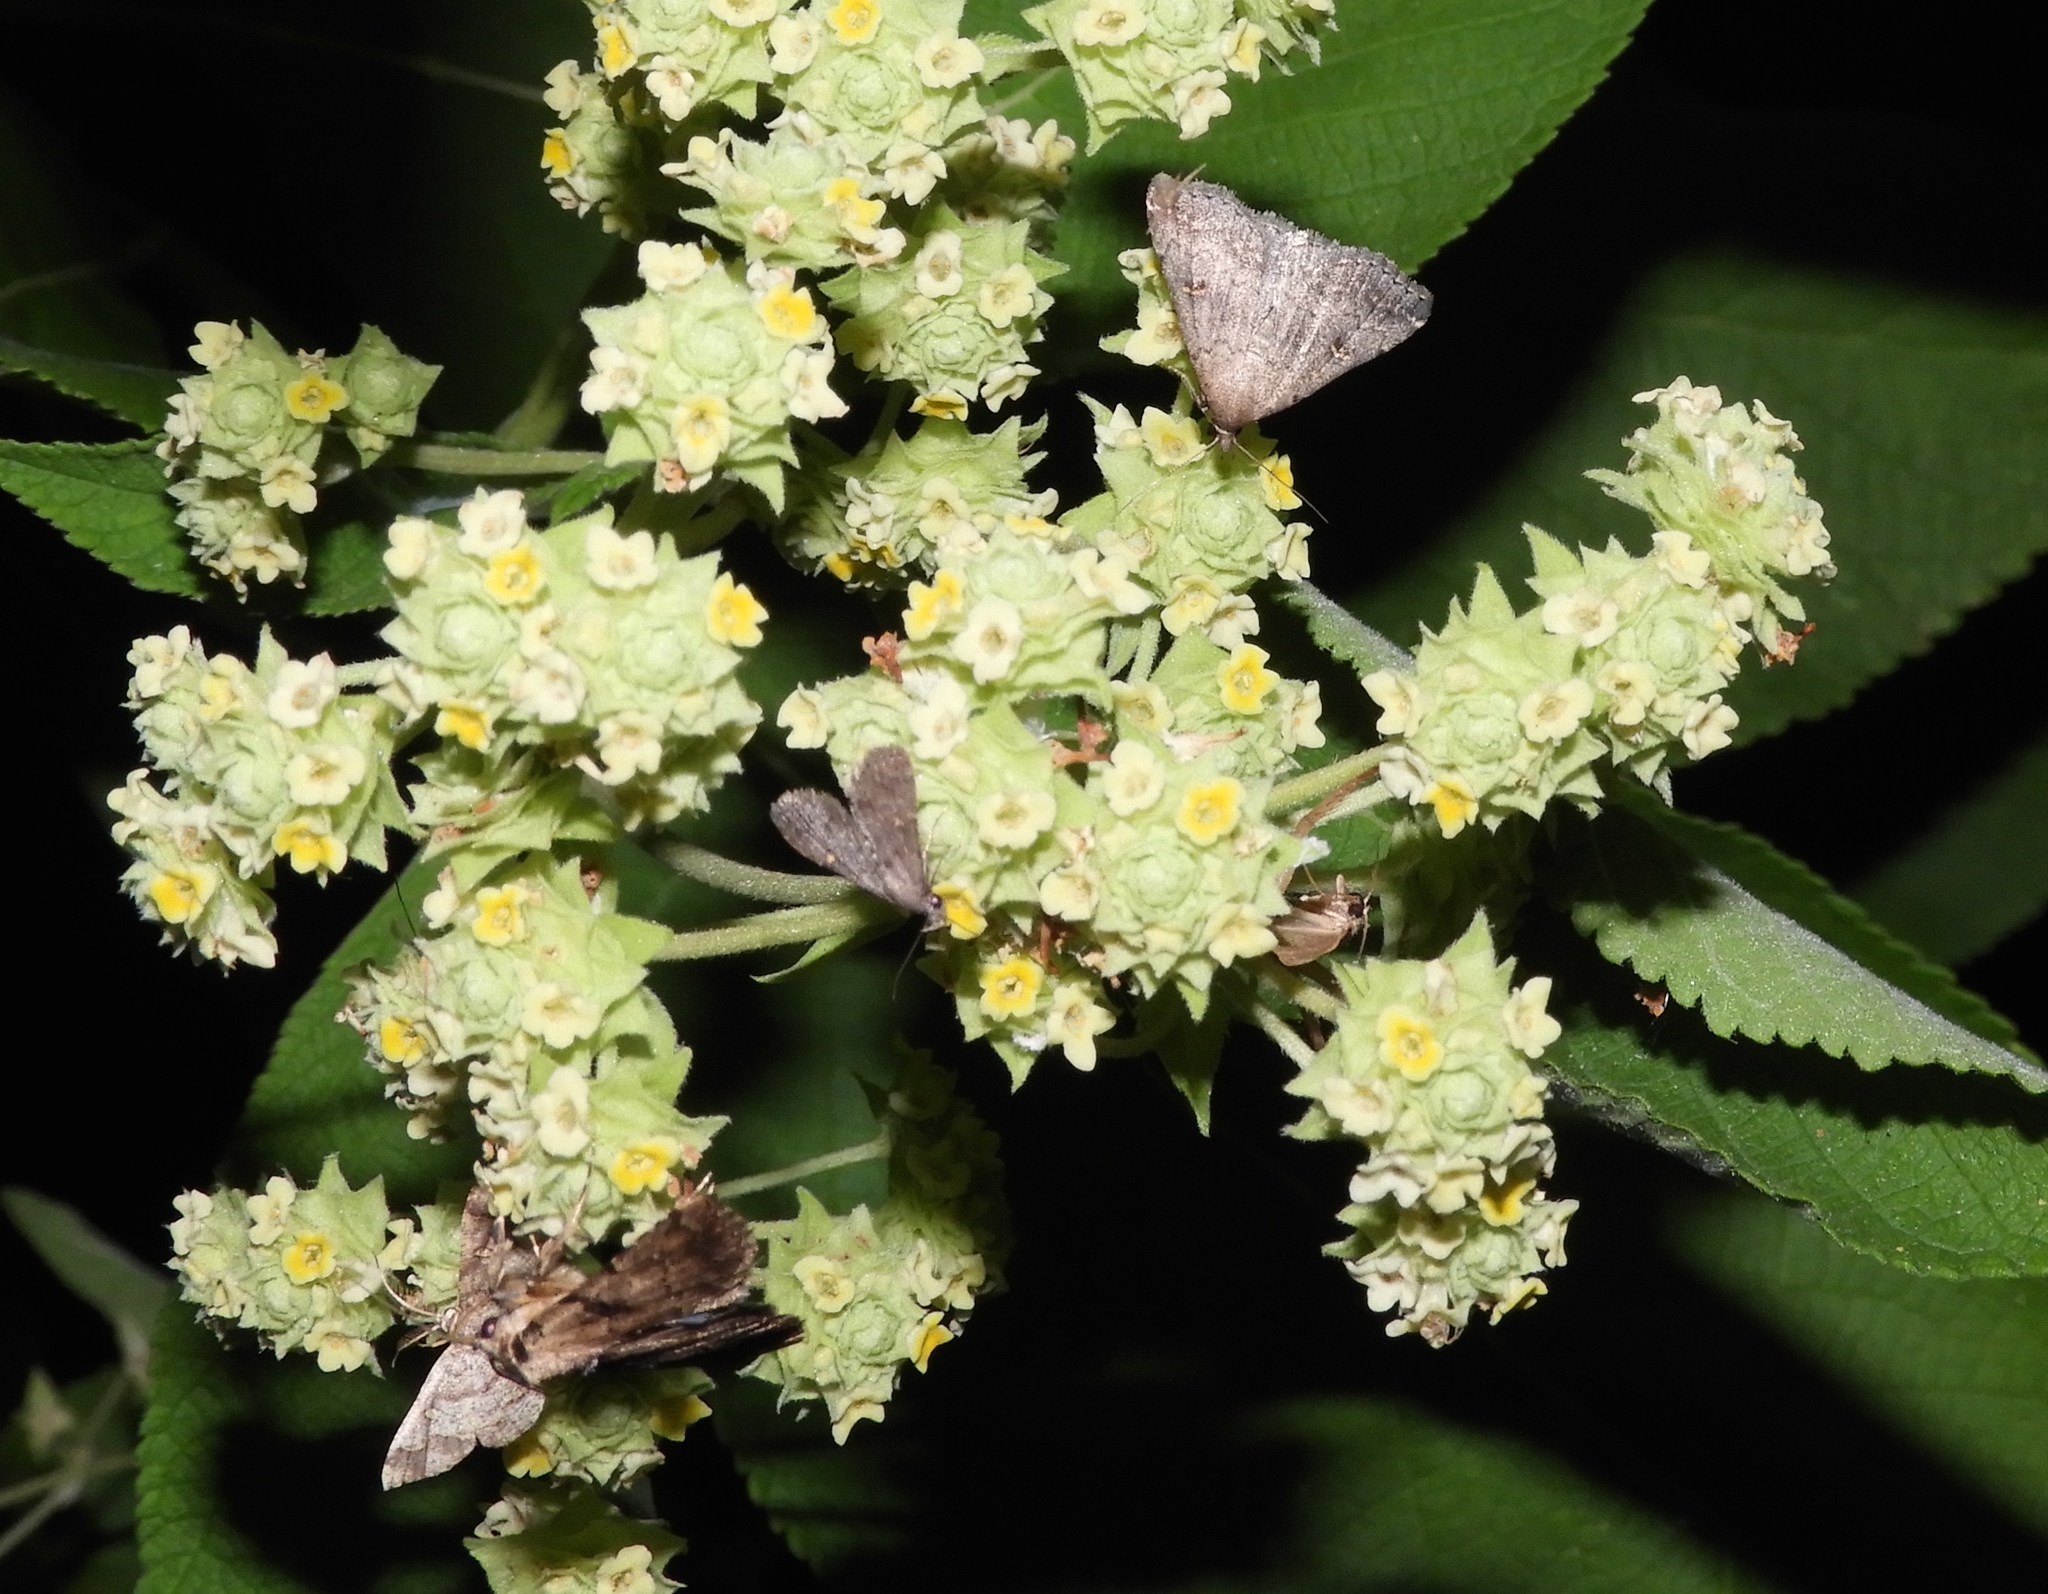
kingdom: Animalia
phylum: Arthropoda
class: Insecta
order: Lepidoptera
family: Erebidae
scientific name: Erebidae
